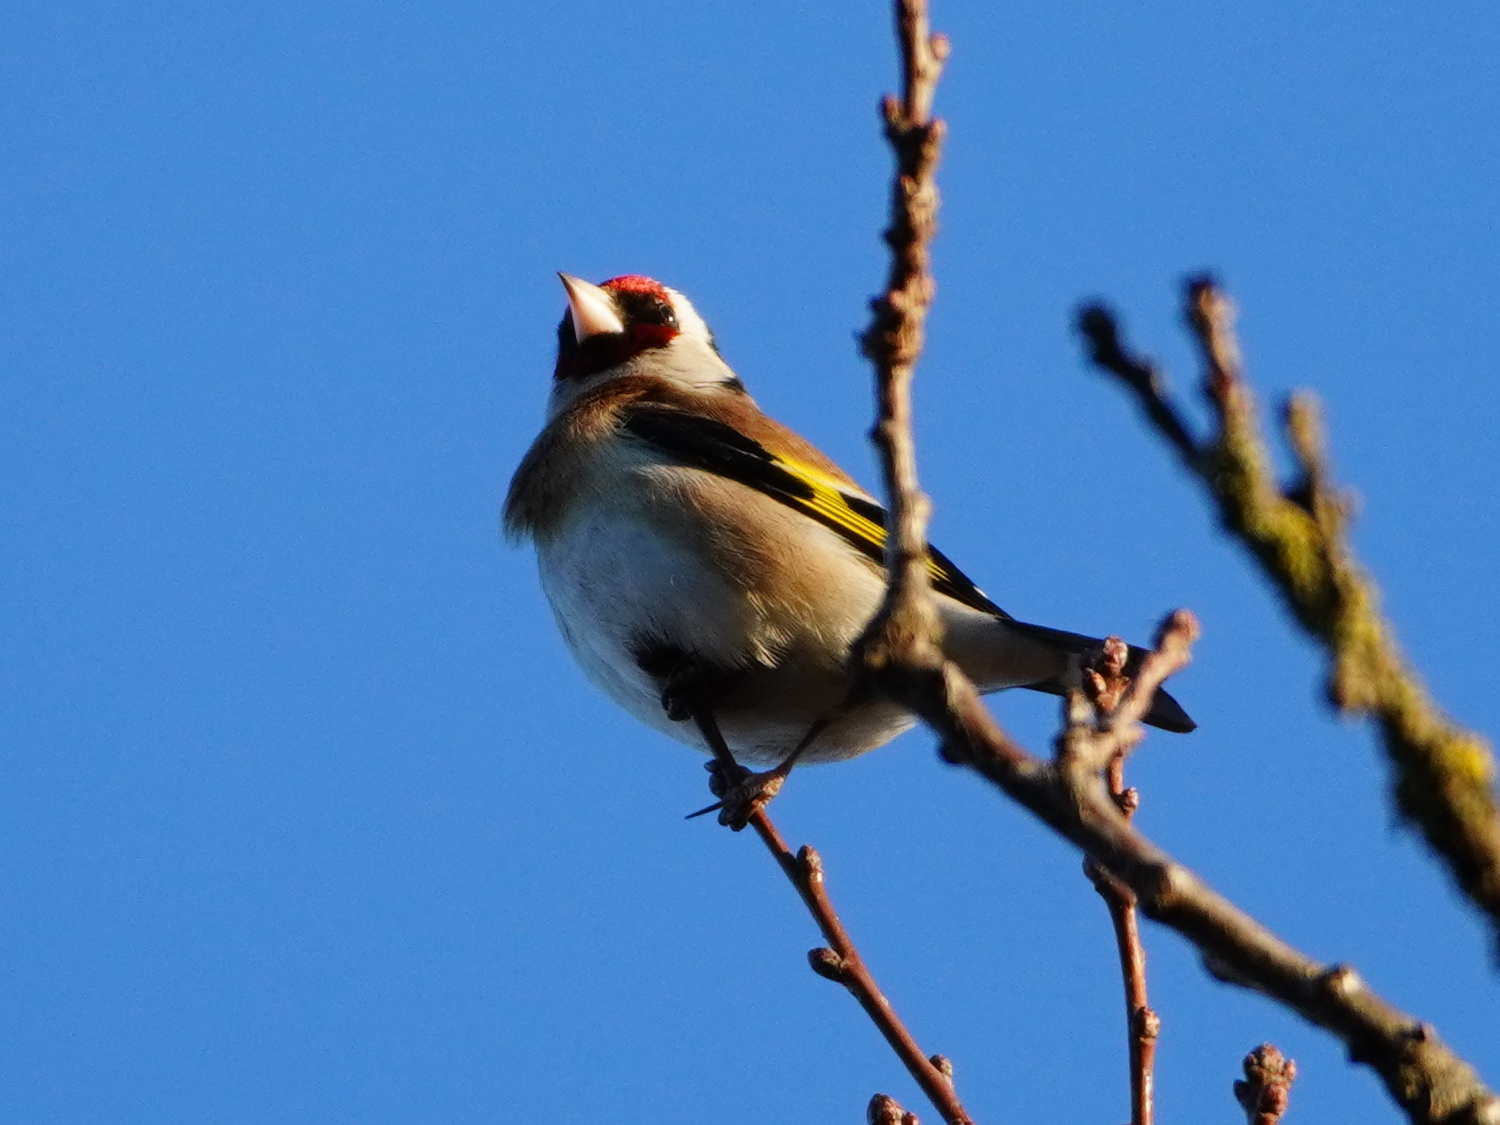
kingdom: Animalia
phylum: Chordata
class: Aves
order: Passeriformes
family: Fringillidae
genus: Carduelis
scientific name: Carduelis carduelis
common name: European goldfinch
